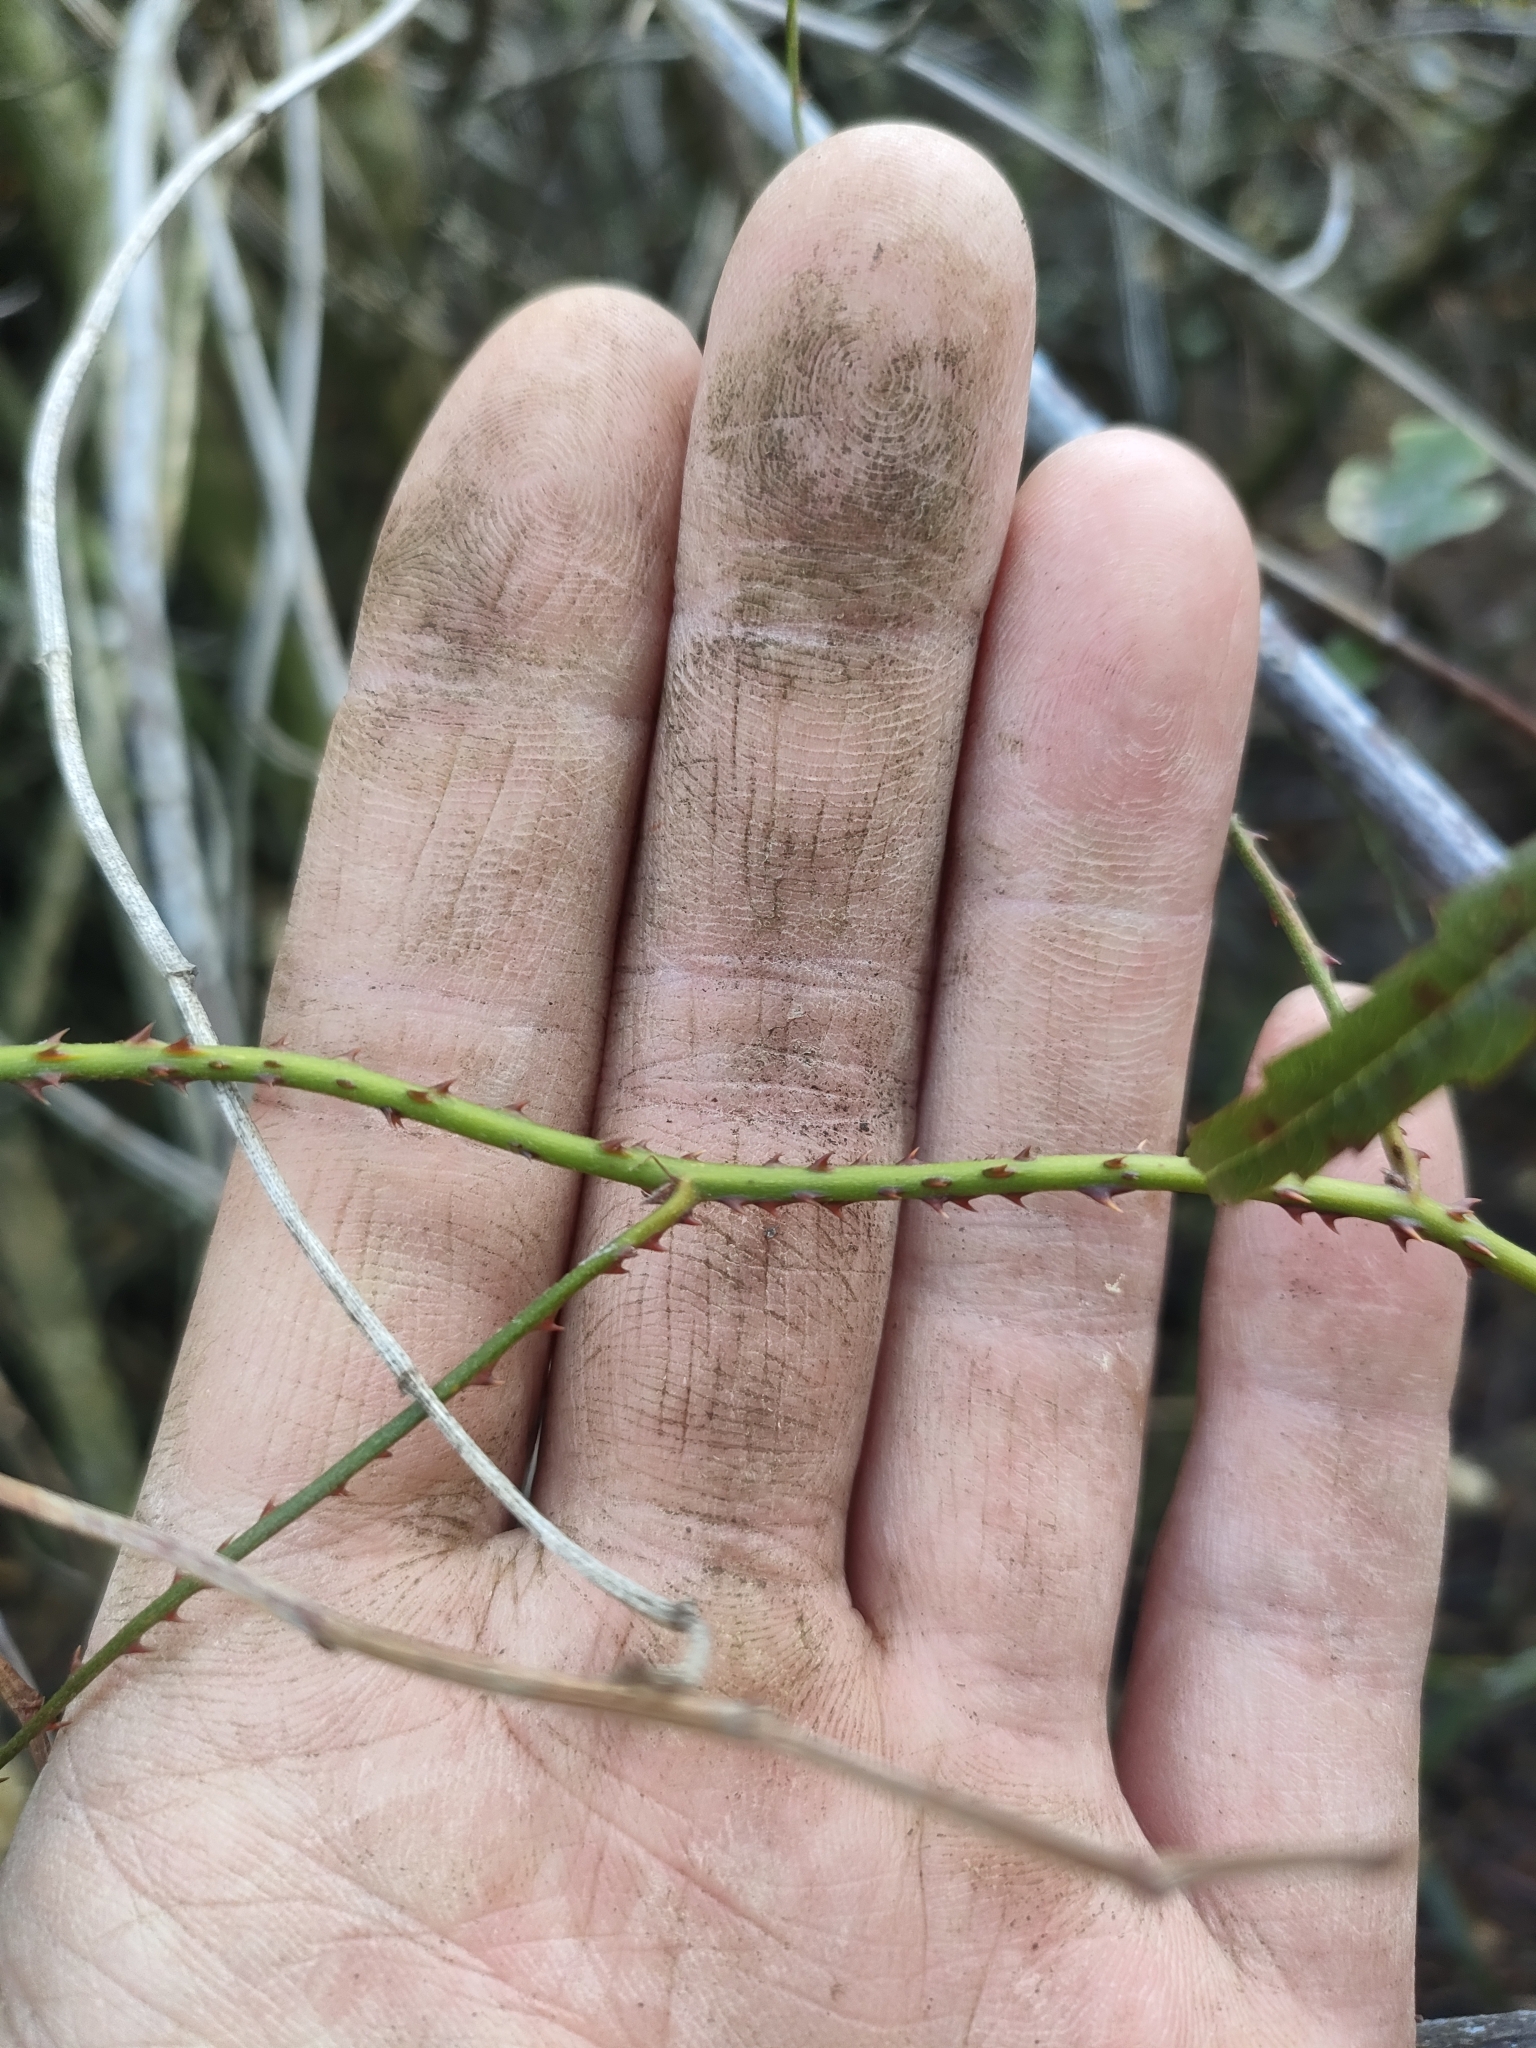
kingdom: Plantae
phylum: Tracheophyta
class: Magnoliopsida
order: Rosales
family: Rosaceae
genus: Rubus
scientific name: Rubus schmidelioides
